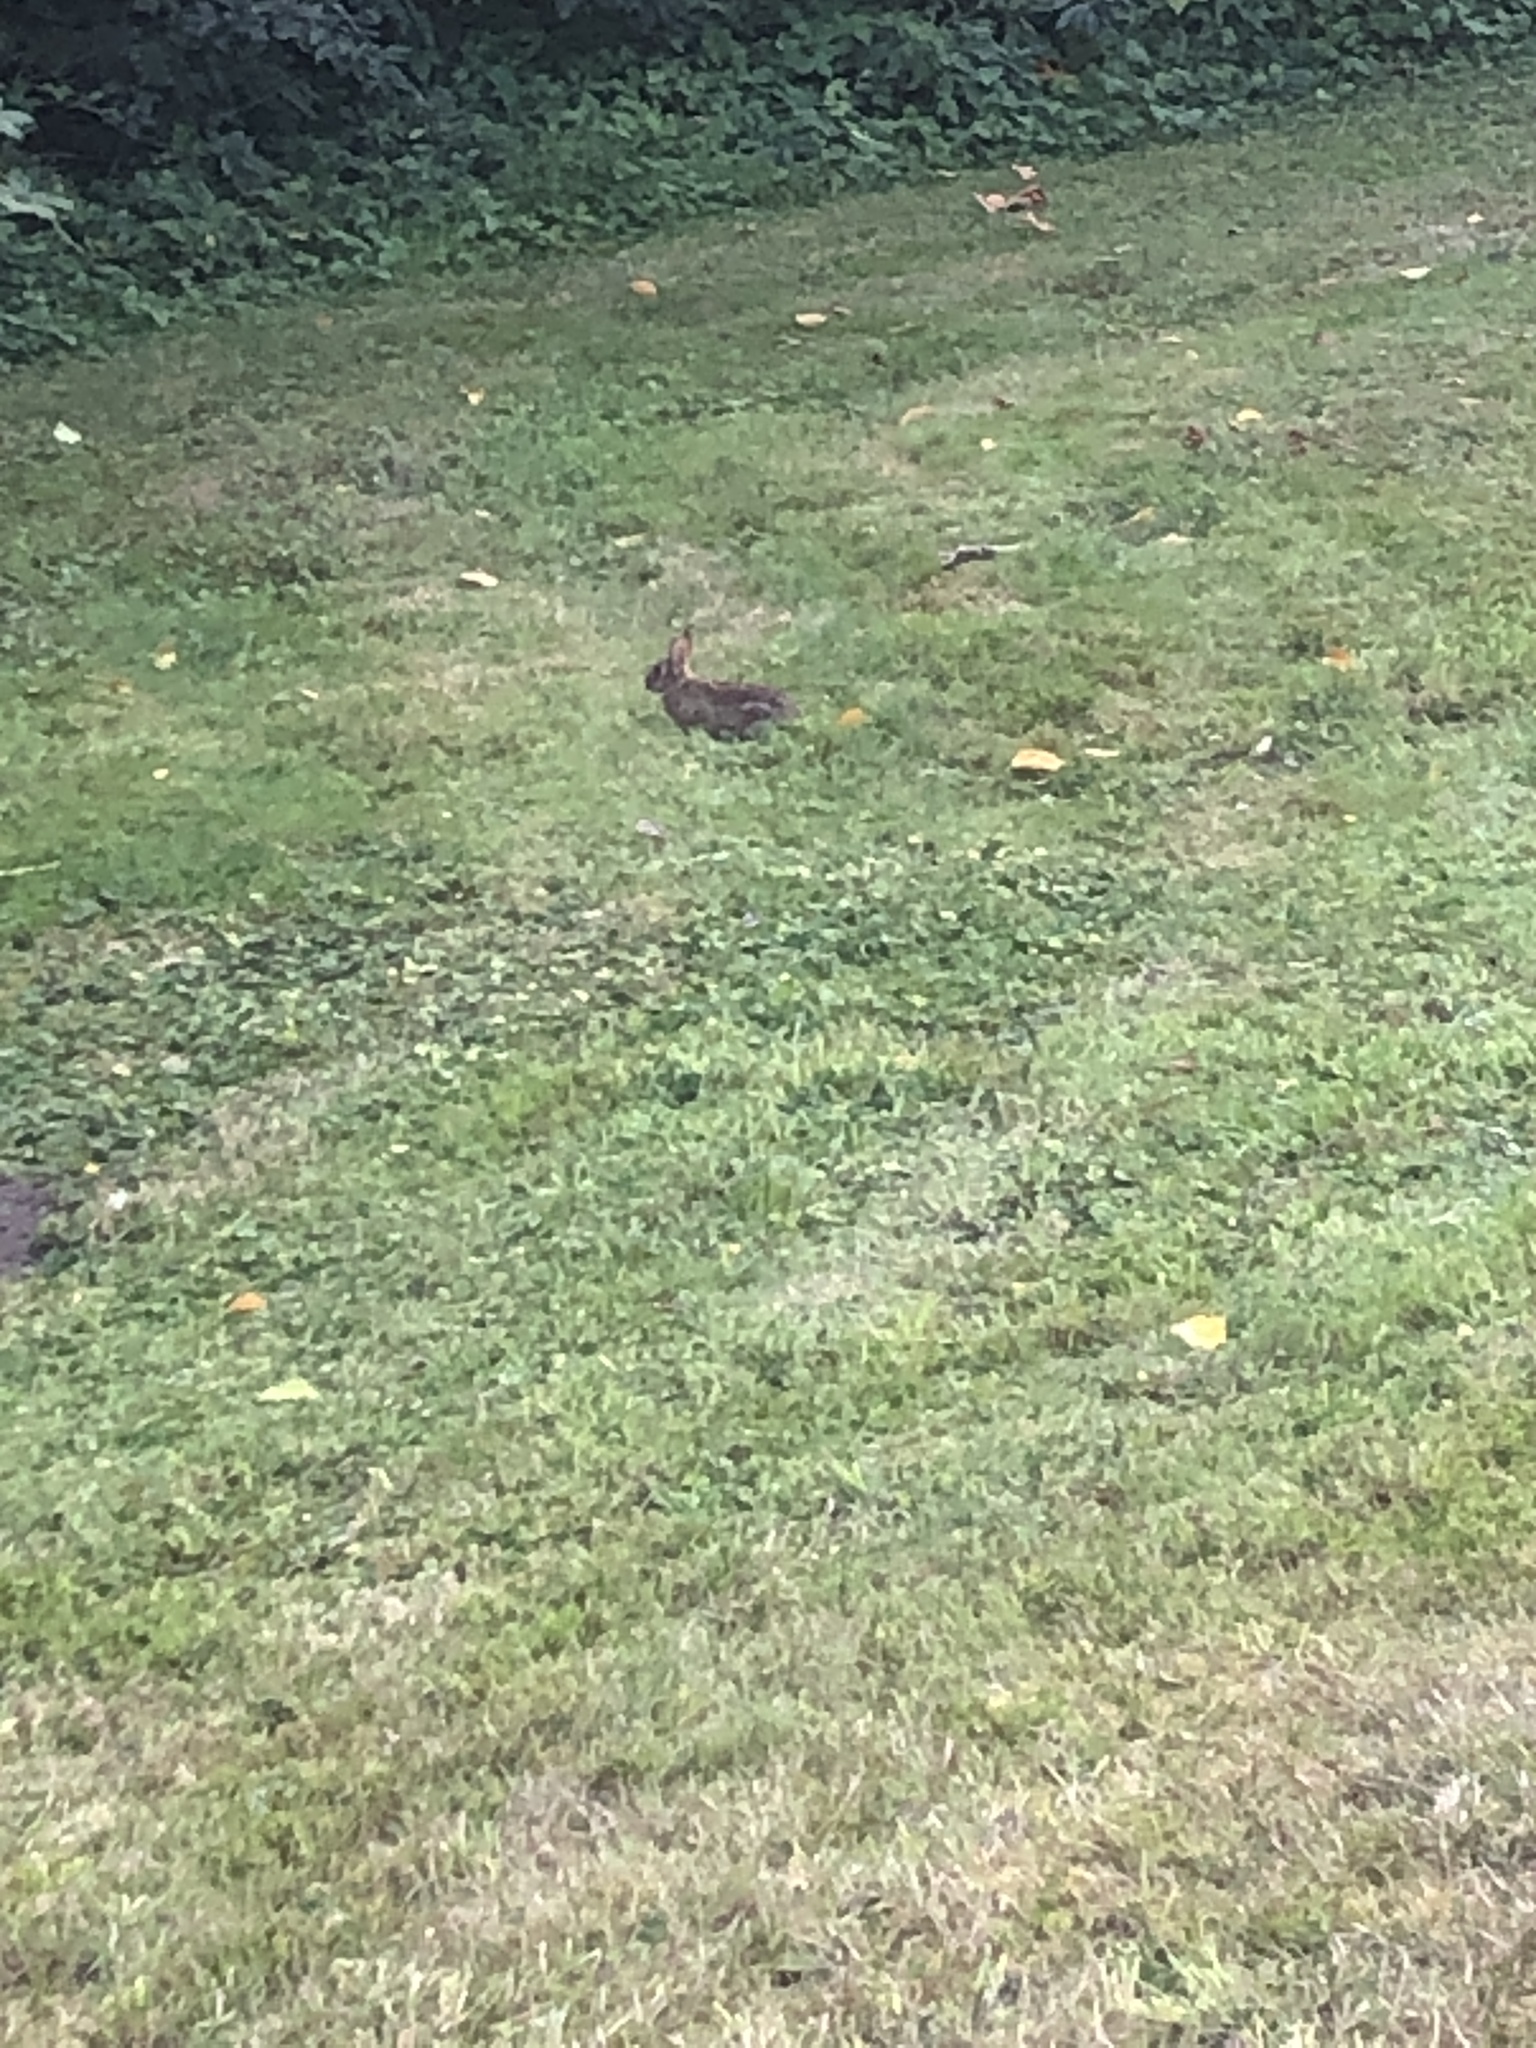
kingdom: Animalia
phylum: Chordata
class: Mammalia
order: Lagomorpha
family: Leporidae
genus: Sylvilagus
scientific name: Sylvilagus floridanus
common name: Eastern cottontail
